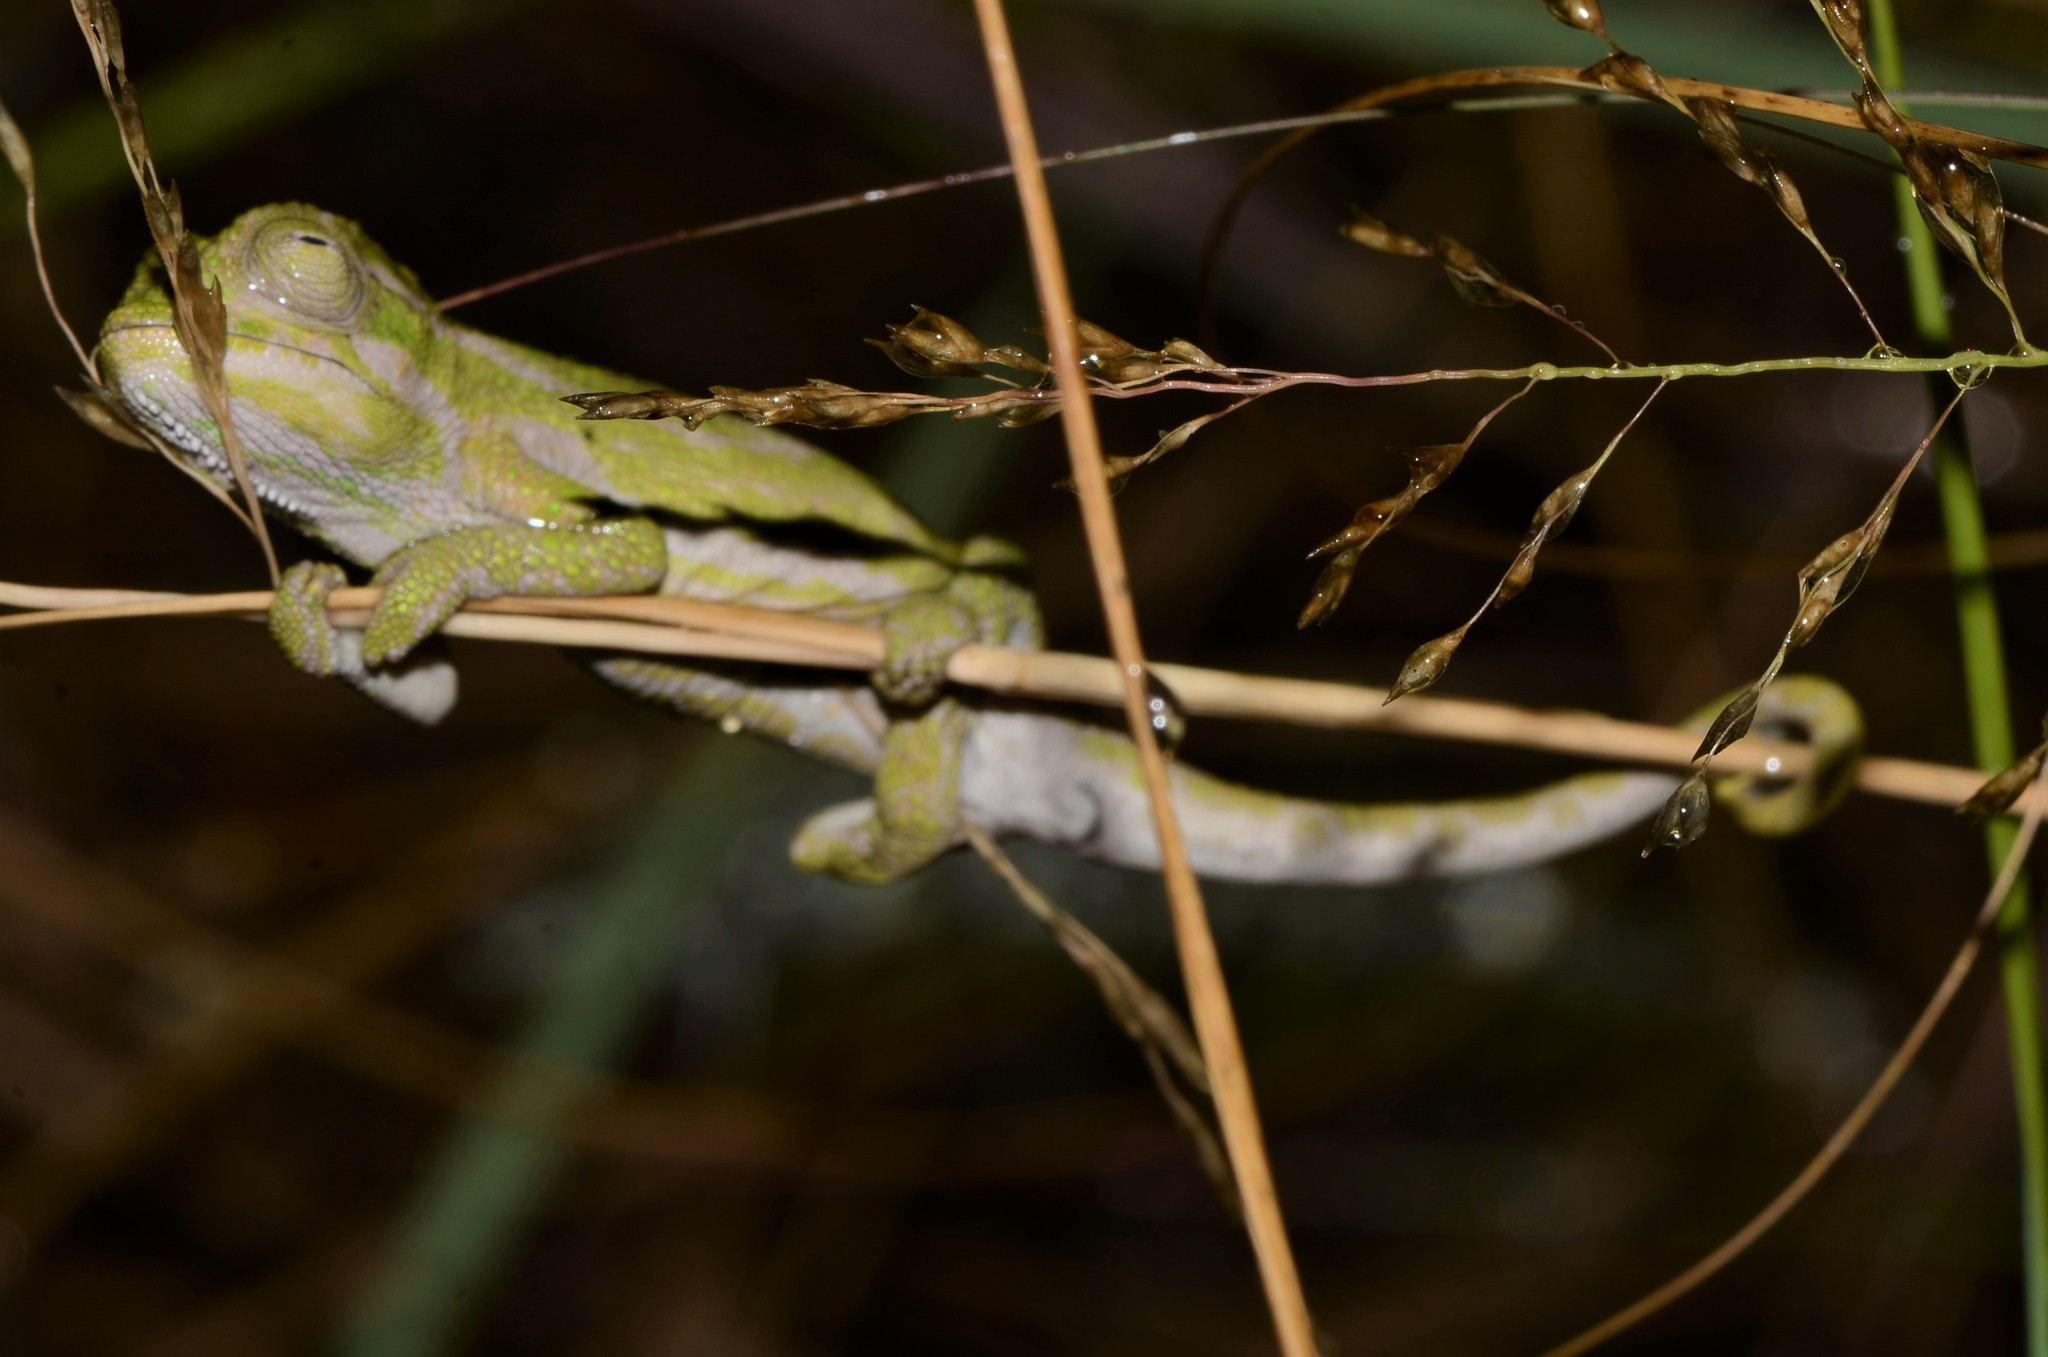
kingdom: Animalia
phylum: Chordata
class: Squamata
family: Chamaeleonidae
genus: Bradypodion
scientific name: Bradypodion pumilum
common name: Cape dwarf chameleon
